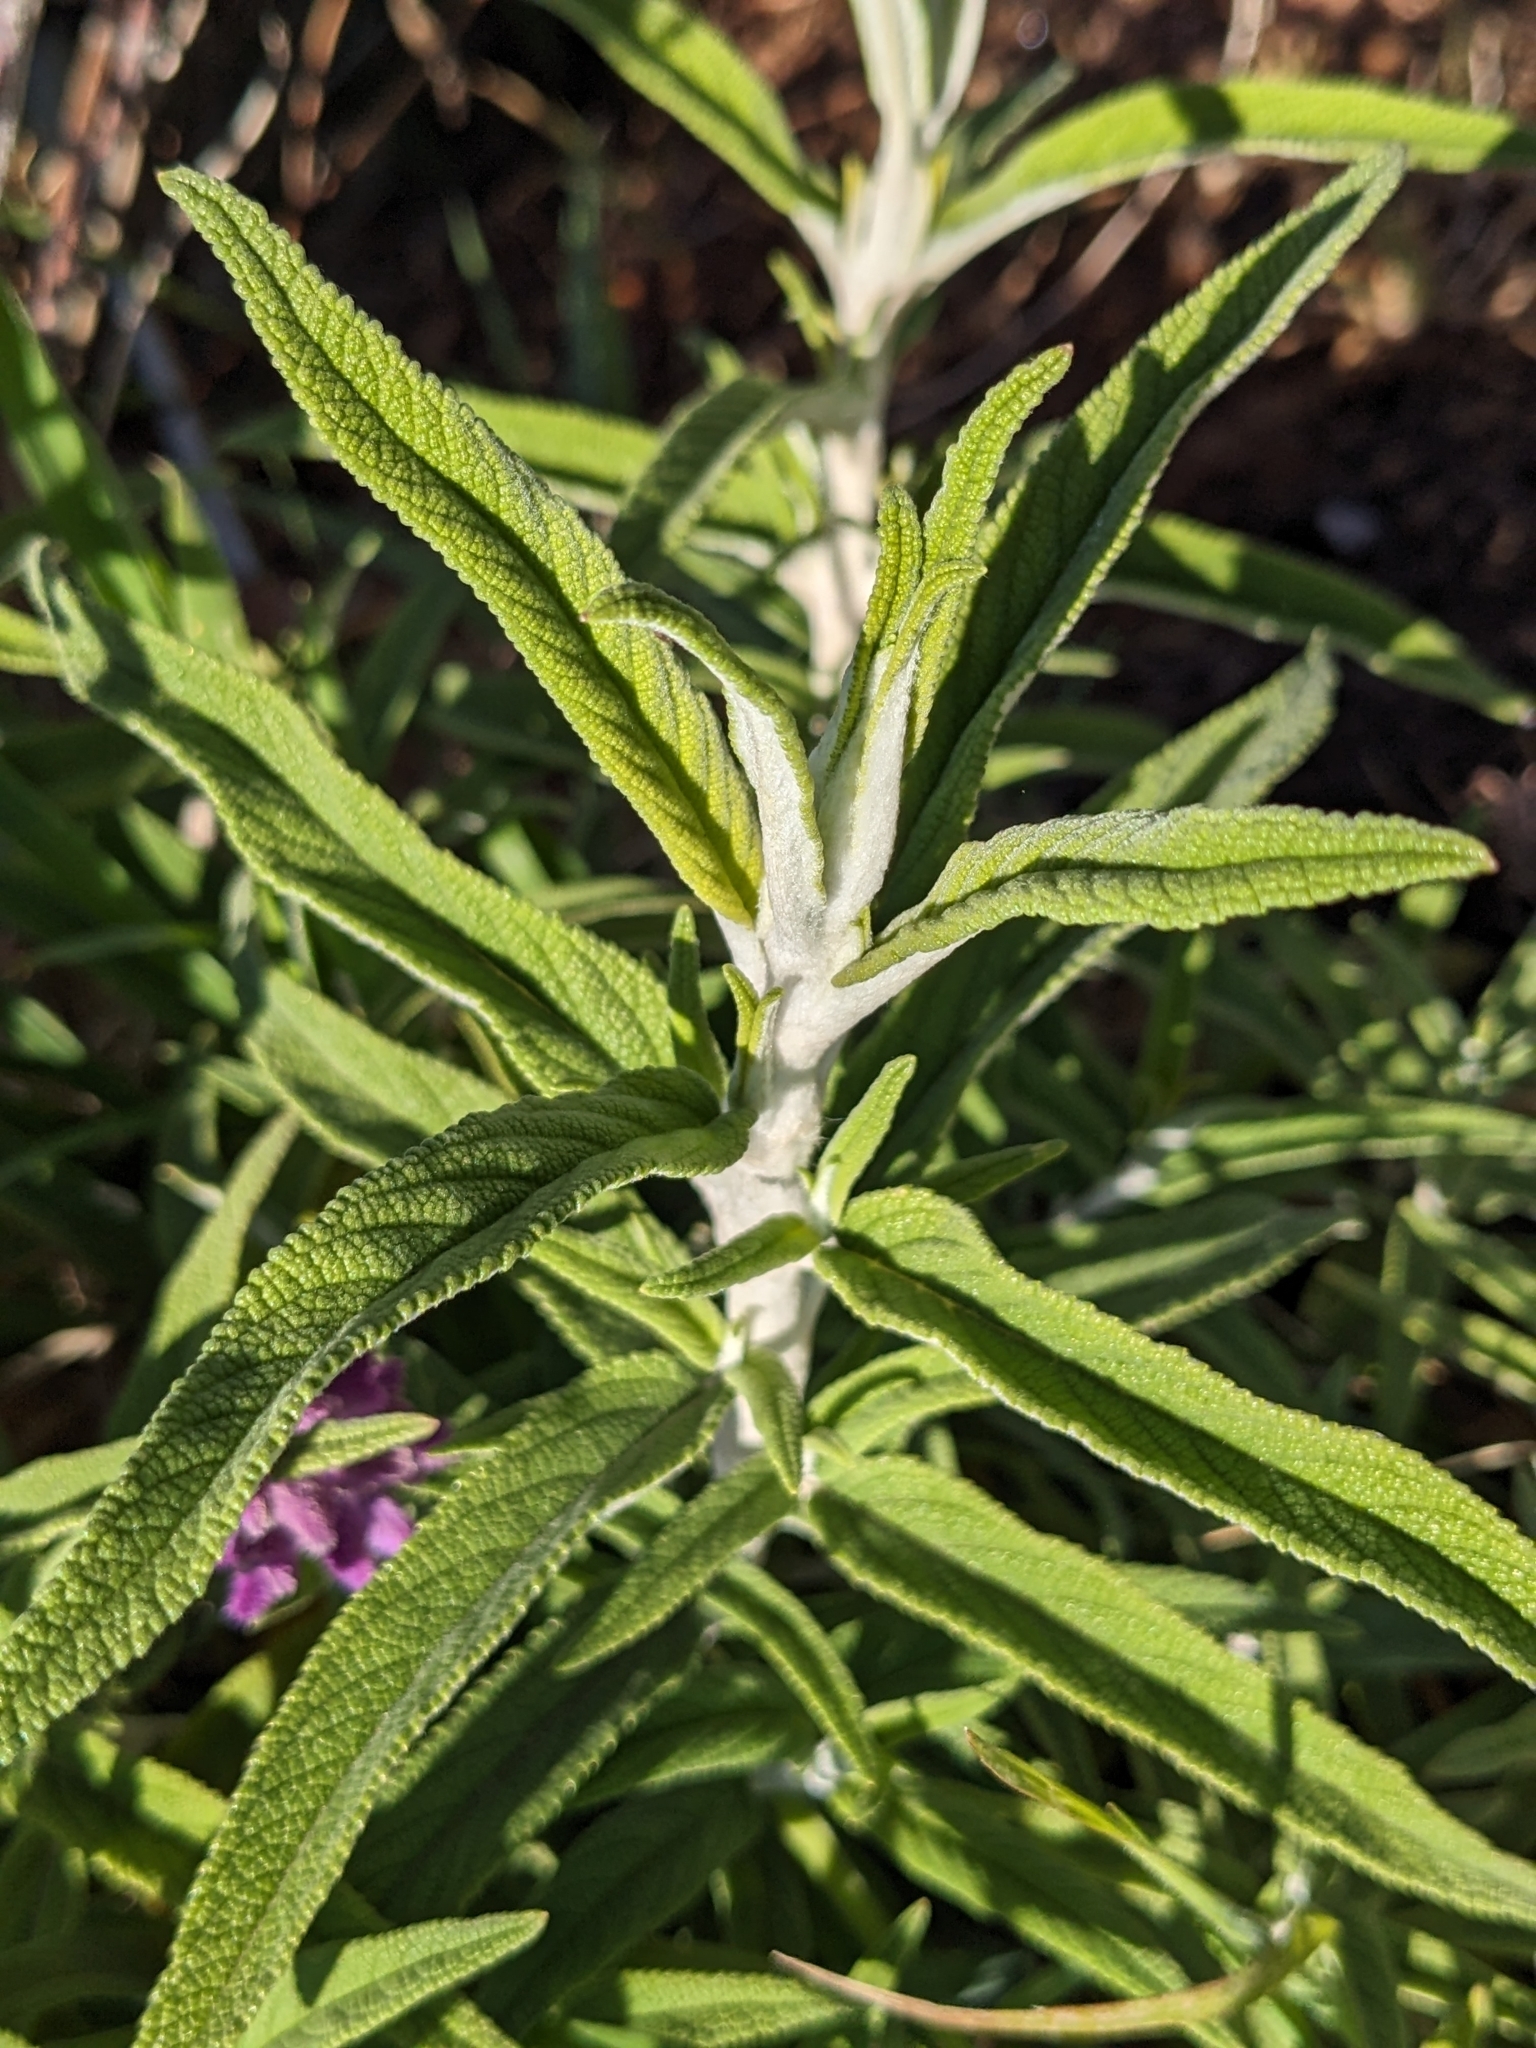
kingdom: Plantae
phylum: Tracheophyta
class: Magnoliopsida
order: Lamiales
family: Lamiaceae
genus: Salvia
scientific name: Salvia leucantha
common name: Mexican bush sage
